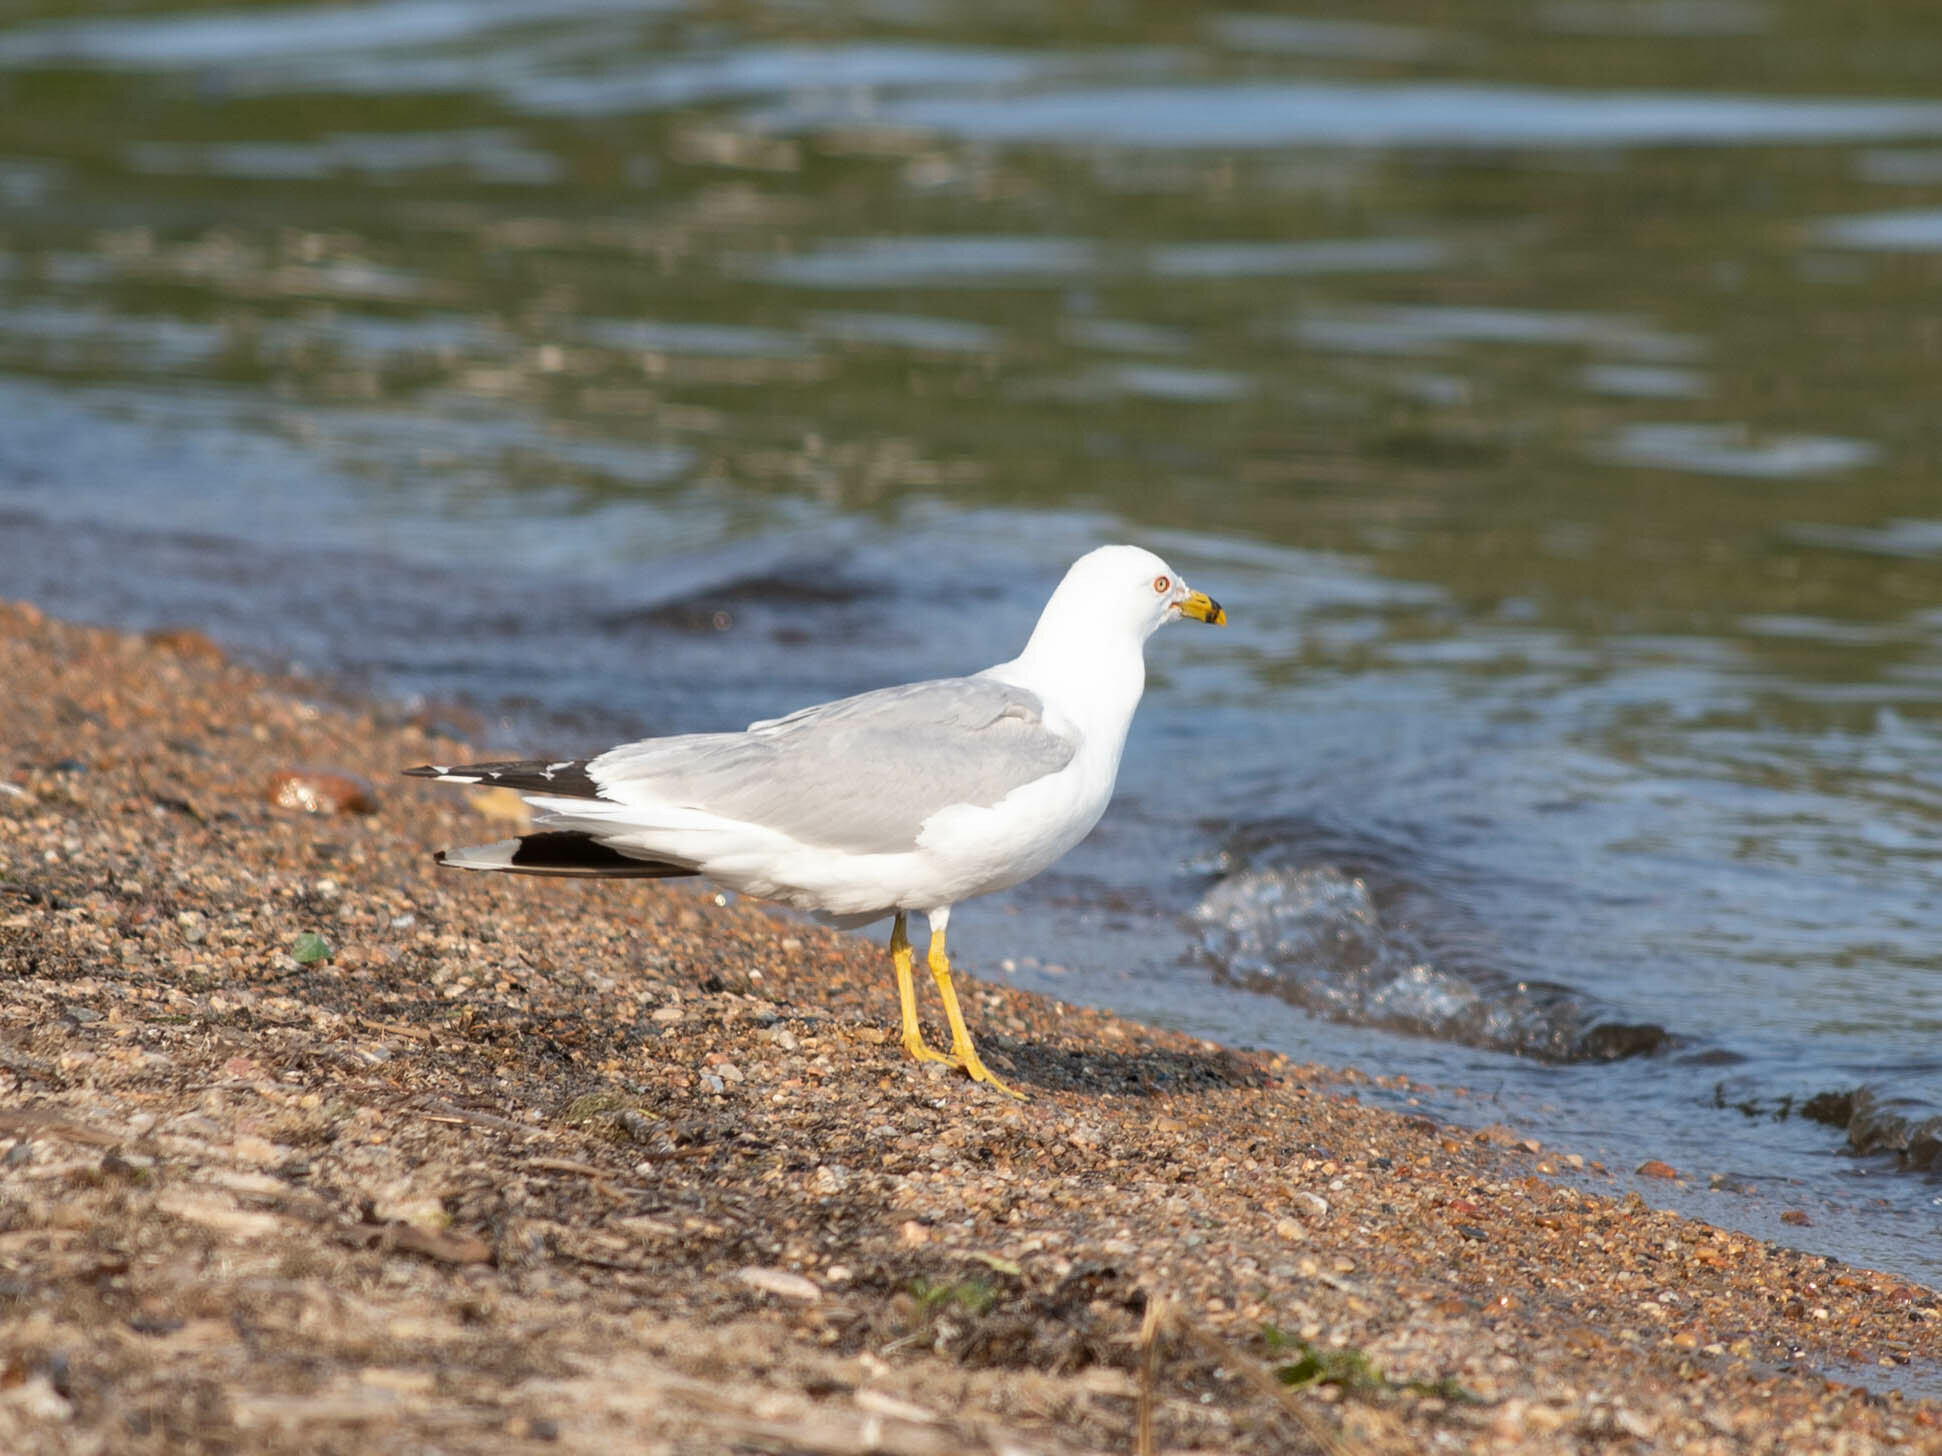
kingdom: Animalia
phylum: Chordata
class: Aves
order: Charadriiformes
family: Laridae
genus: Larus
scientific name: Larus delawarensis
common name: Ring-billed gull
